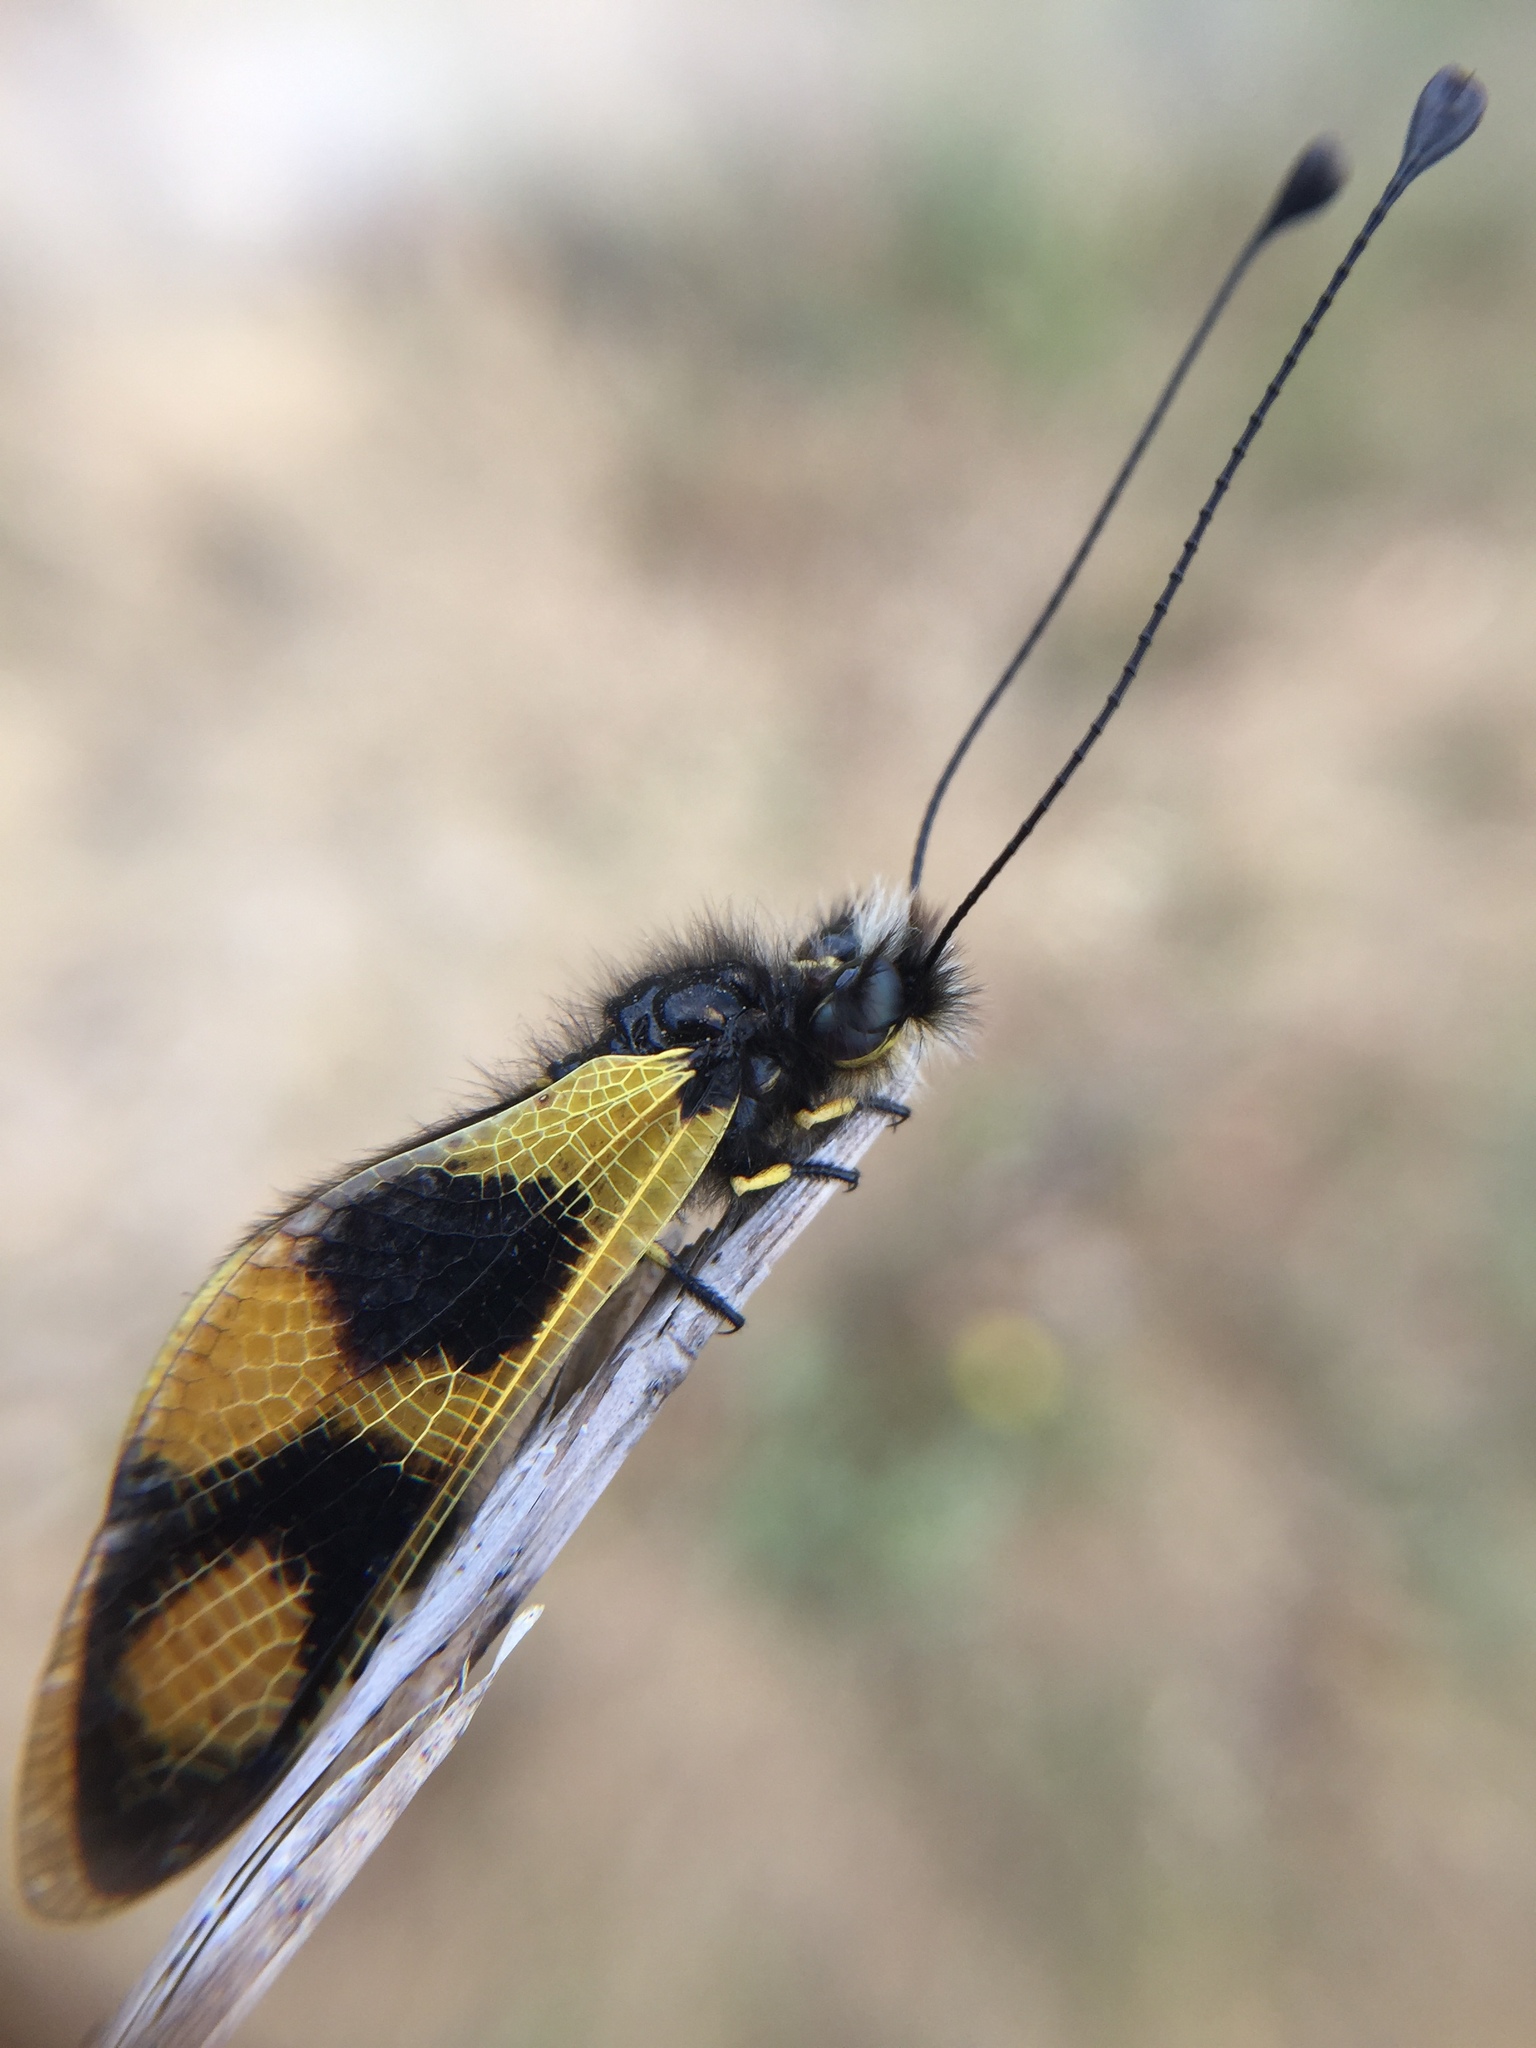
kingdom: Animalia
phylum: Arthropoda
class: Insecta
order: Neuroptera
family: Ascalaphidae
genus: Libelloides
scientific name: Libelloides macaronius
